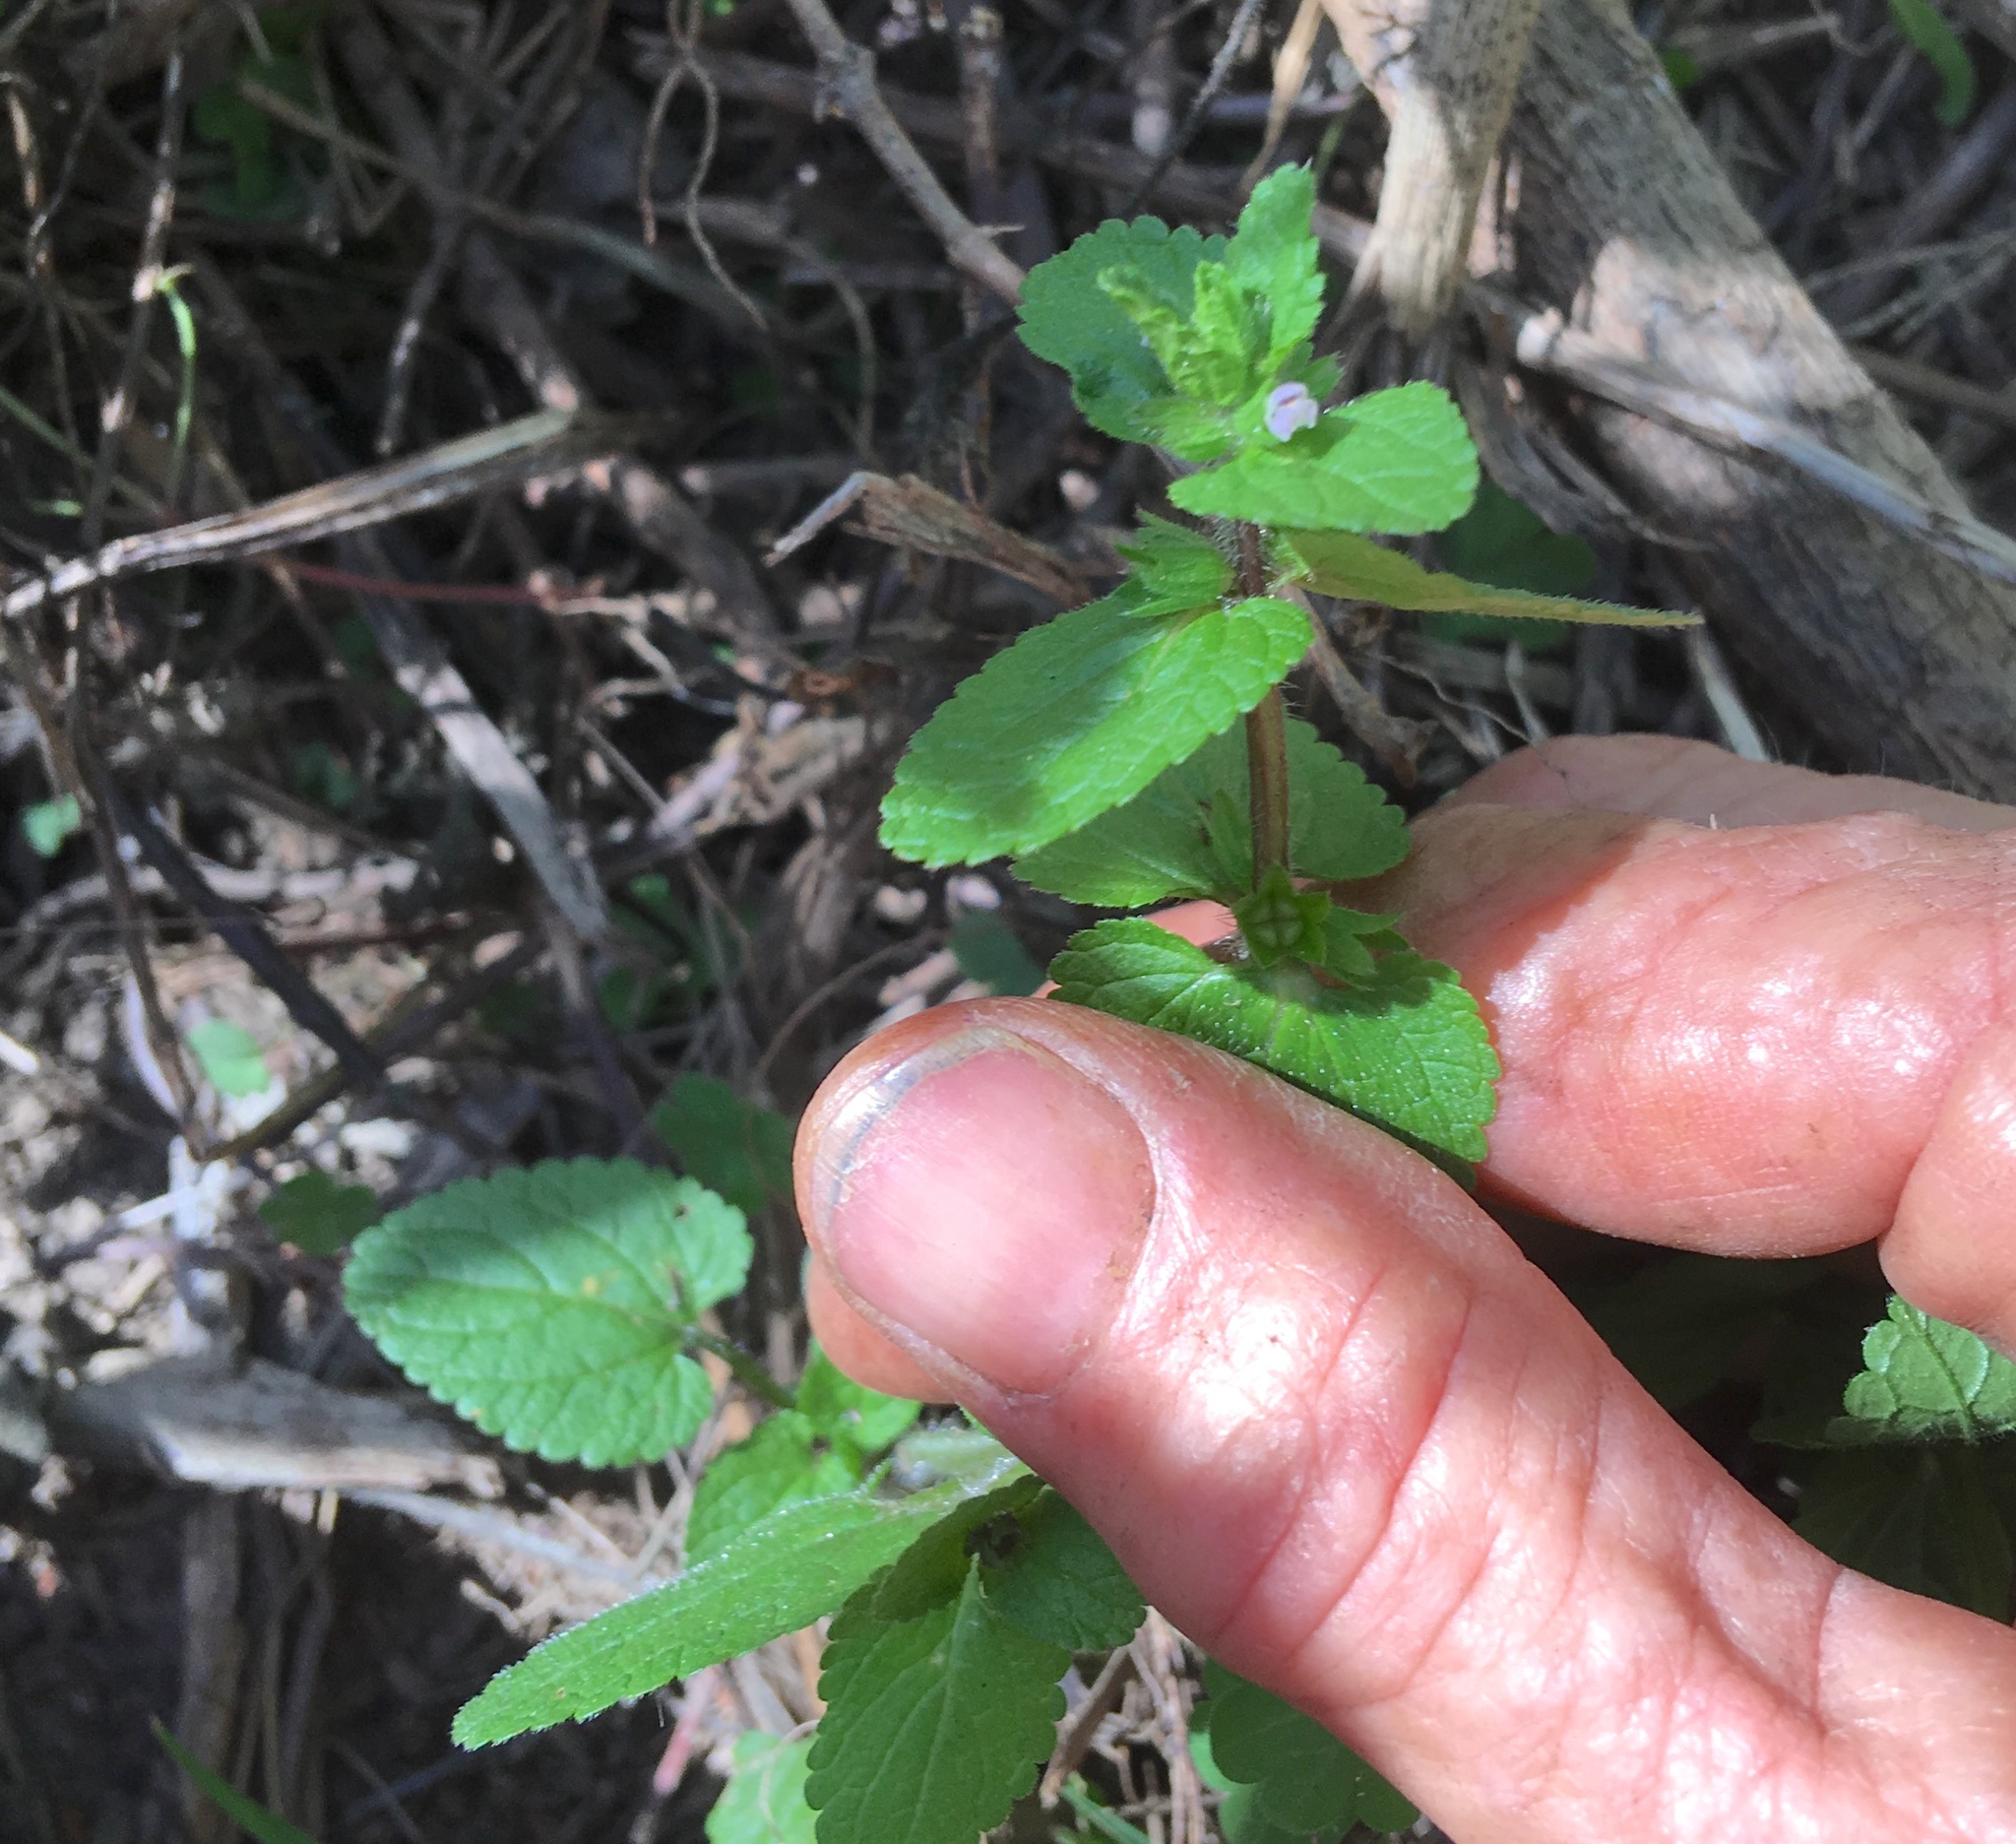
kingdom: Plantae
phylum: Tracheophyta
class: Magnoliopsida
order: Lamiales
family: Lamiaceae
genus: Stachys
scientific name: Stachys arvensis
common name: Field woundwort
